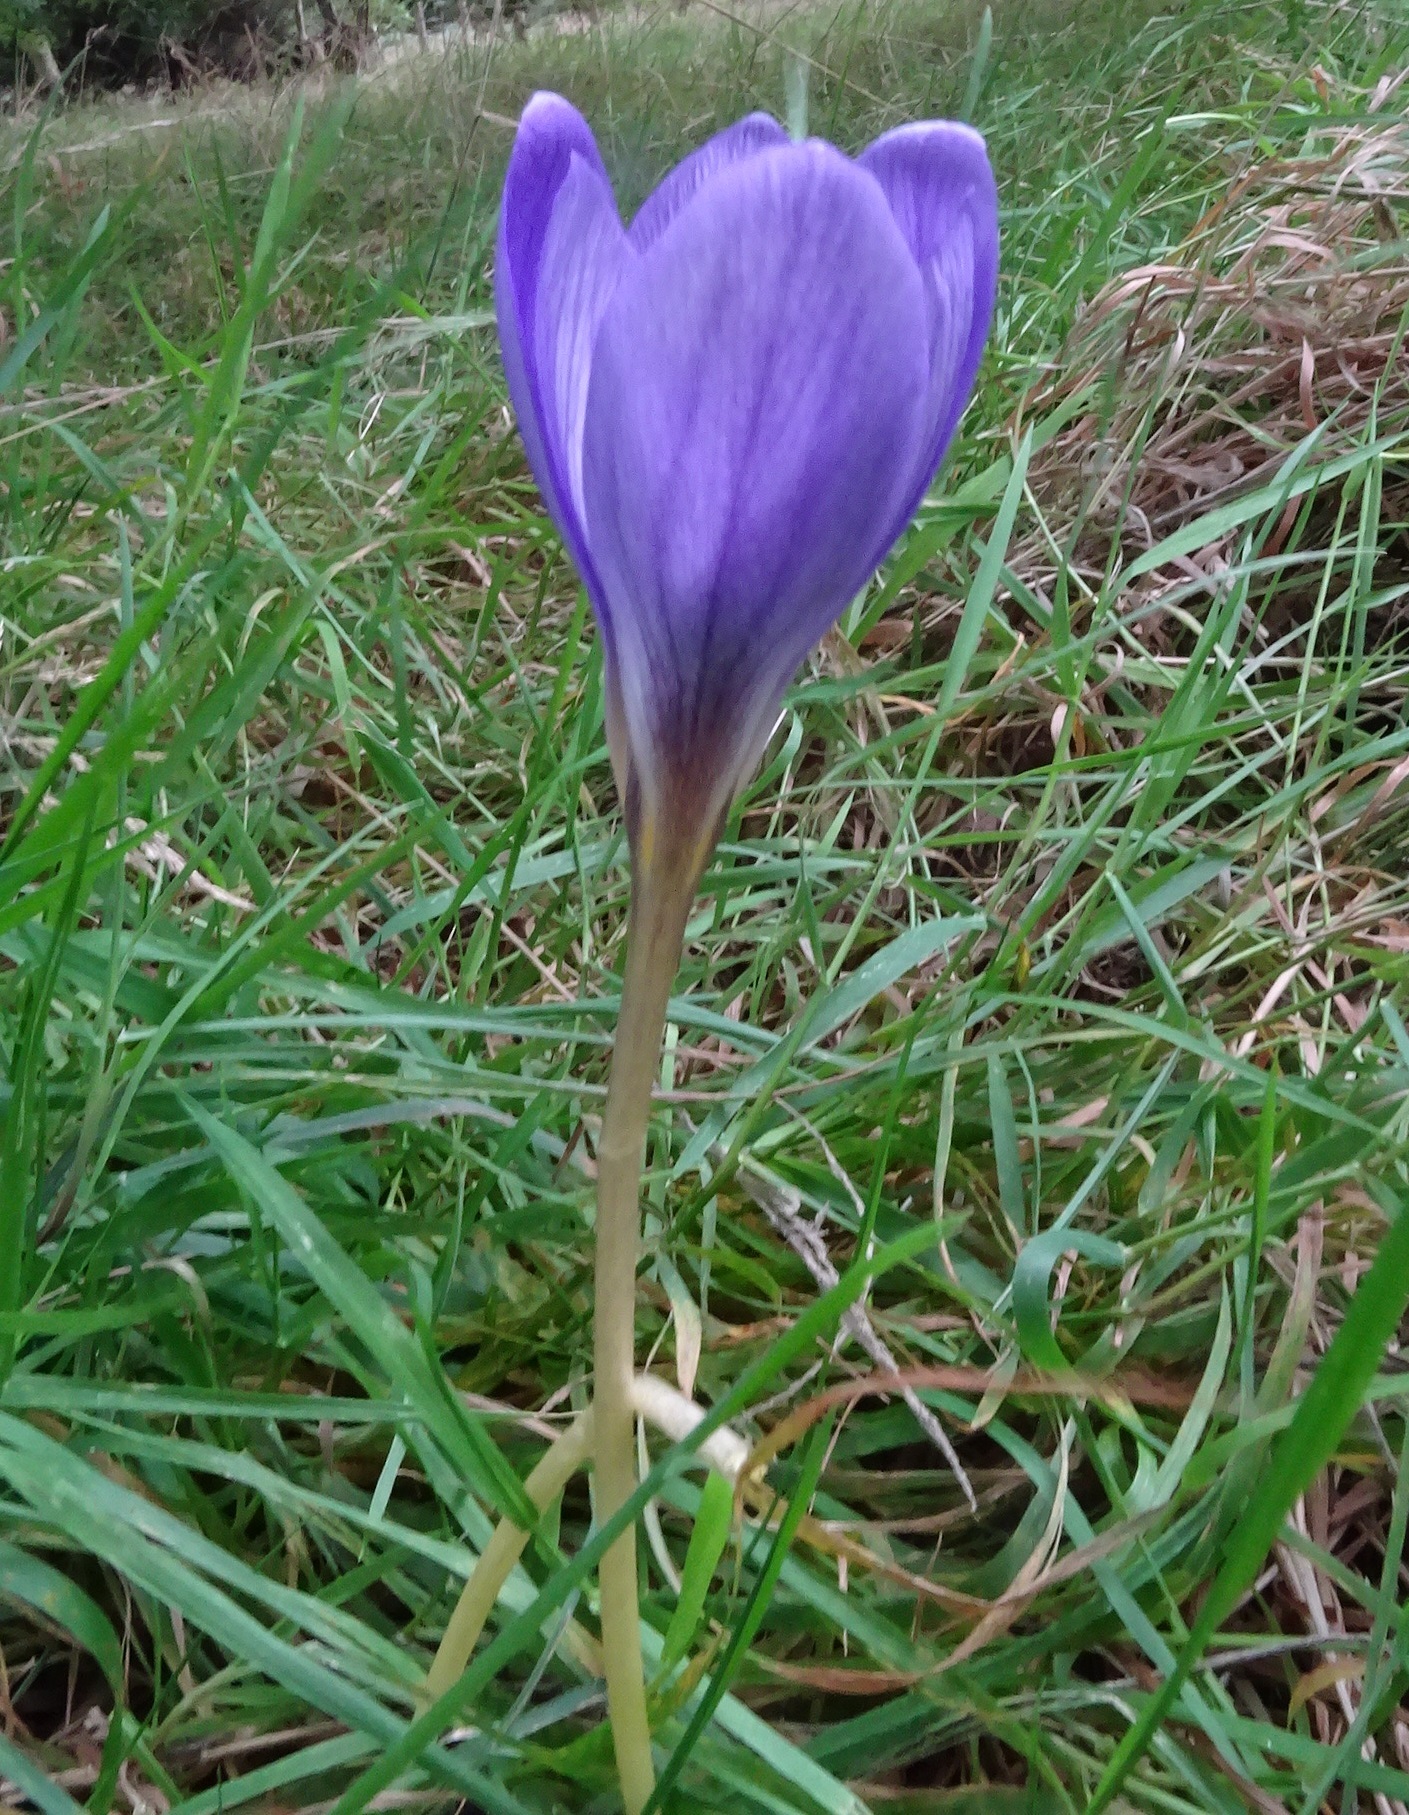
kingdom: Plantae
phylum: Tracheophyta
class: Liliopsida
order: Asparagales
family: Iridaceae
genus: Crocus
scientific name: Crocus speciosus
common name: Bieberstein's crocus
